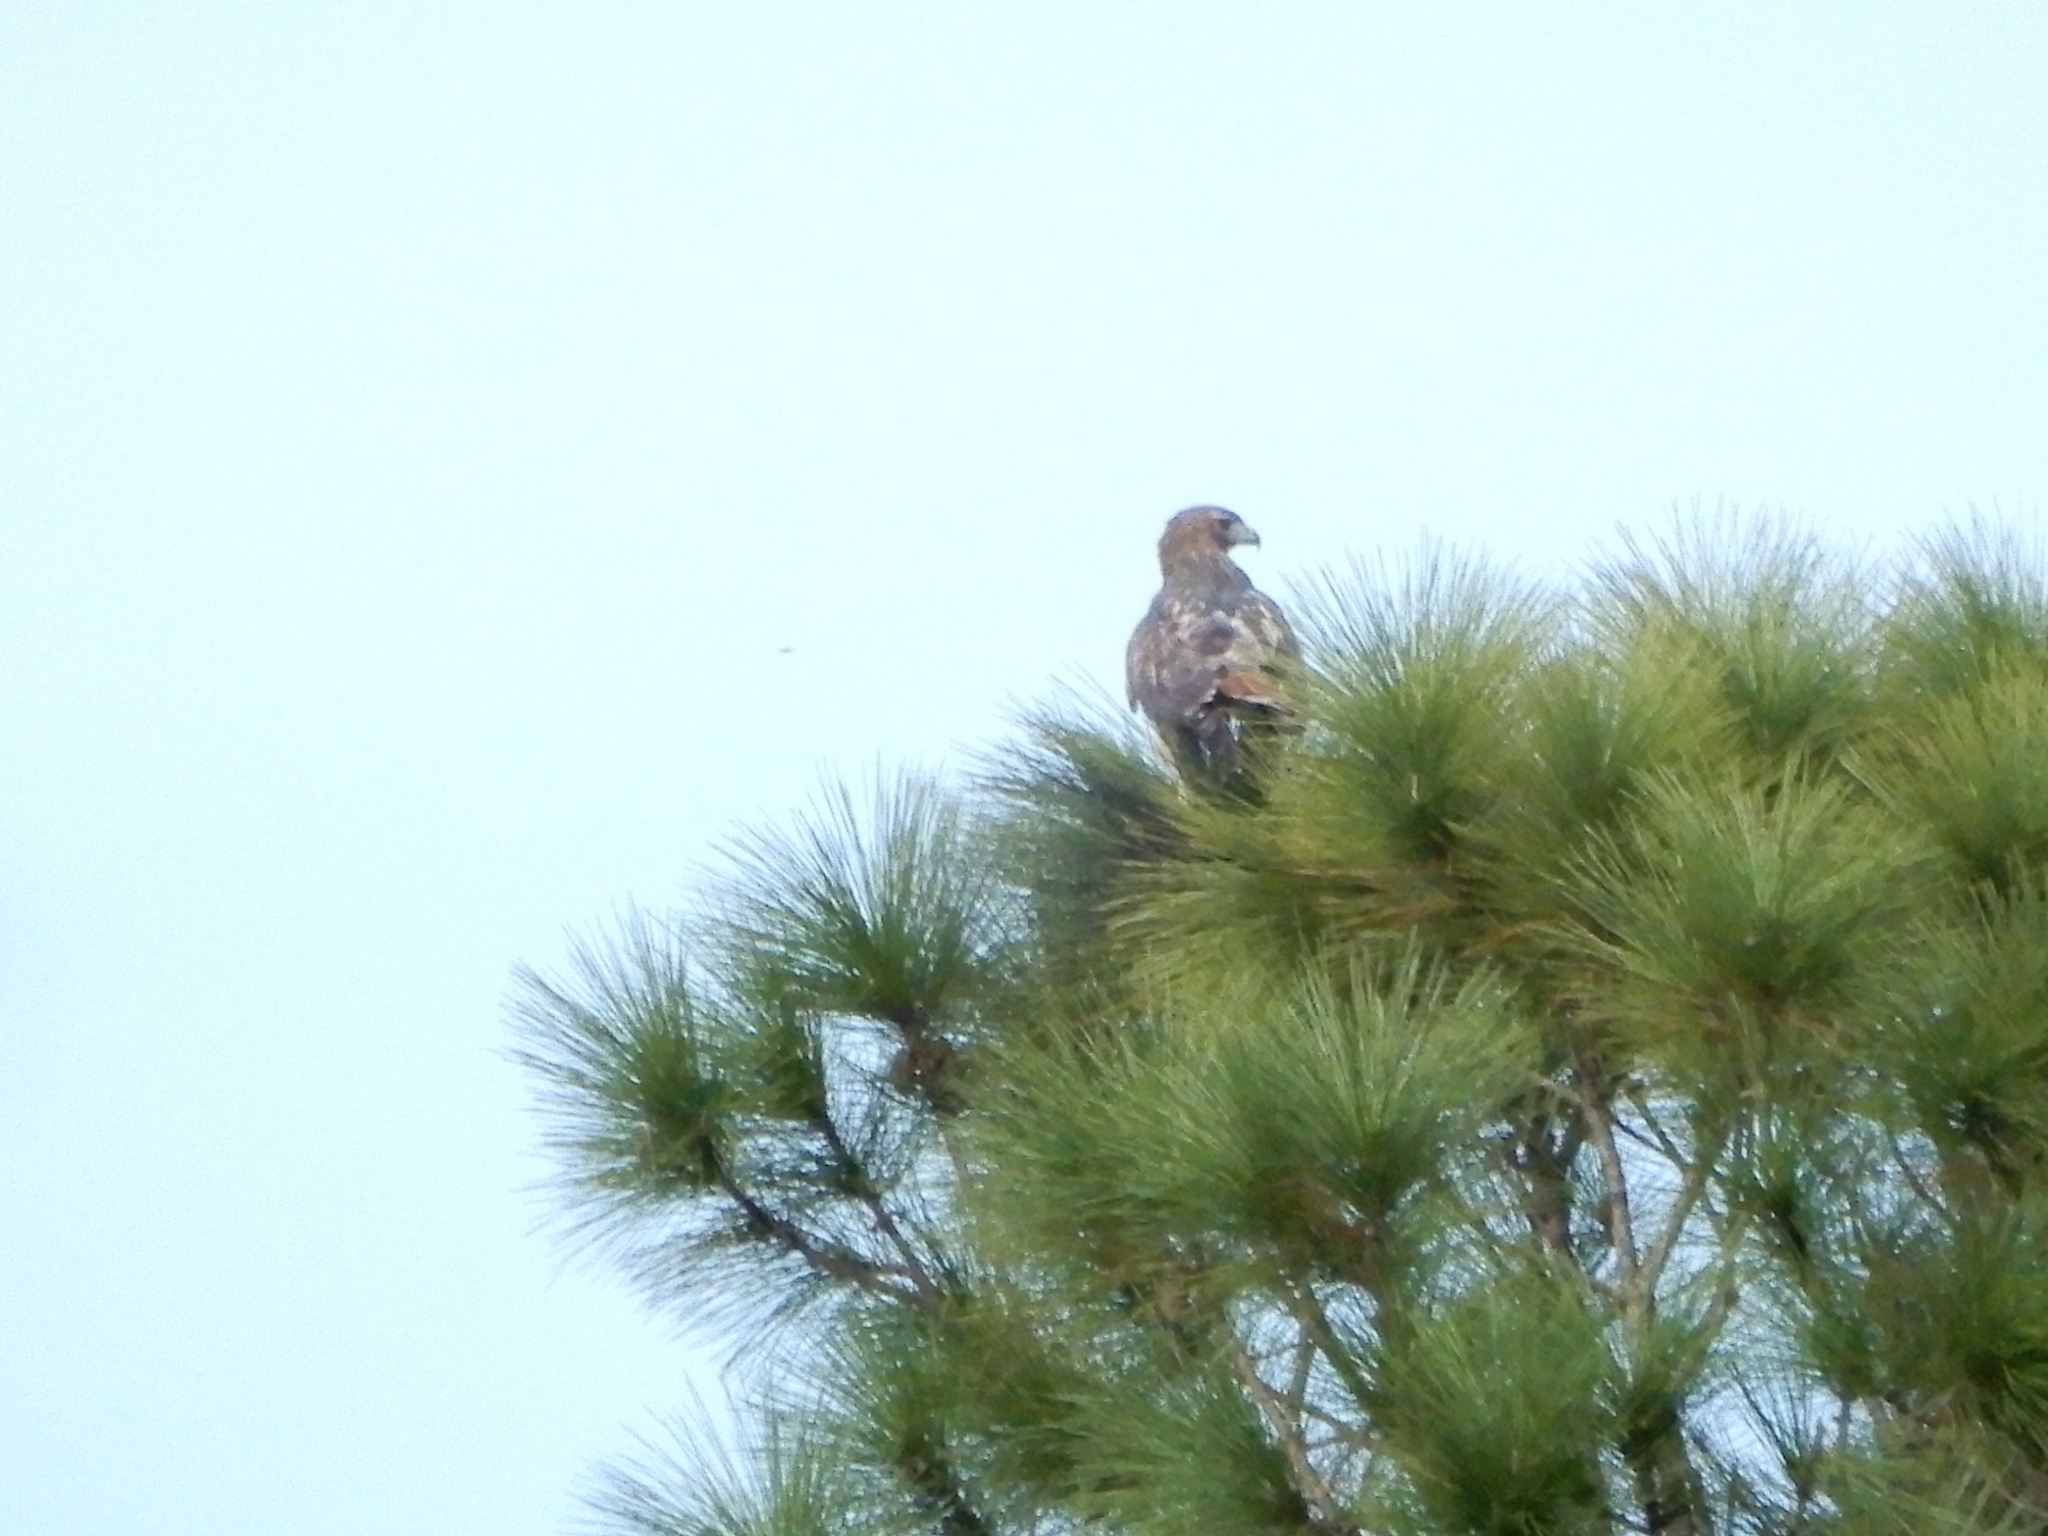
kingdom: Animalia
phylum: Chordata
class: Aves
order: Accipitriformes
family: Accipitridae
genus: Buteo
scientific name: Buteo jamaicensis
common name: Red-tailed hawk
